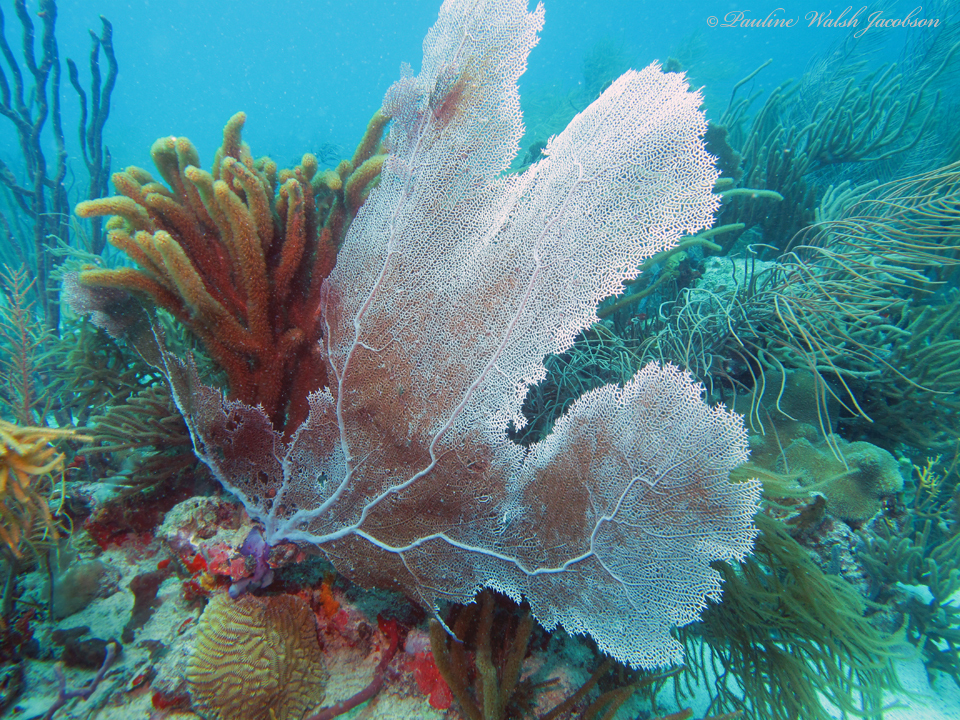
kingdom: Animalia
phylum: Cnidaria
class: Anthozoa
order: Malacalcyonacea
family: Gorgoniidae
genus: Gorgonia
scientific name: Gorgonia ventalina
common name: Common sea fan
